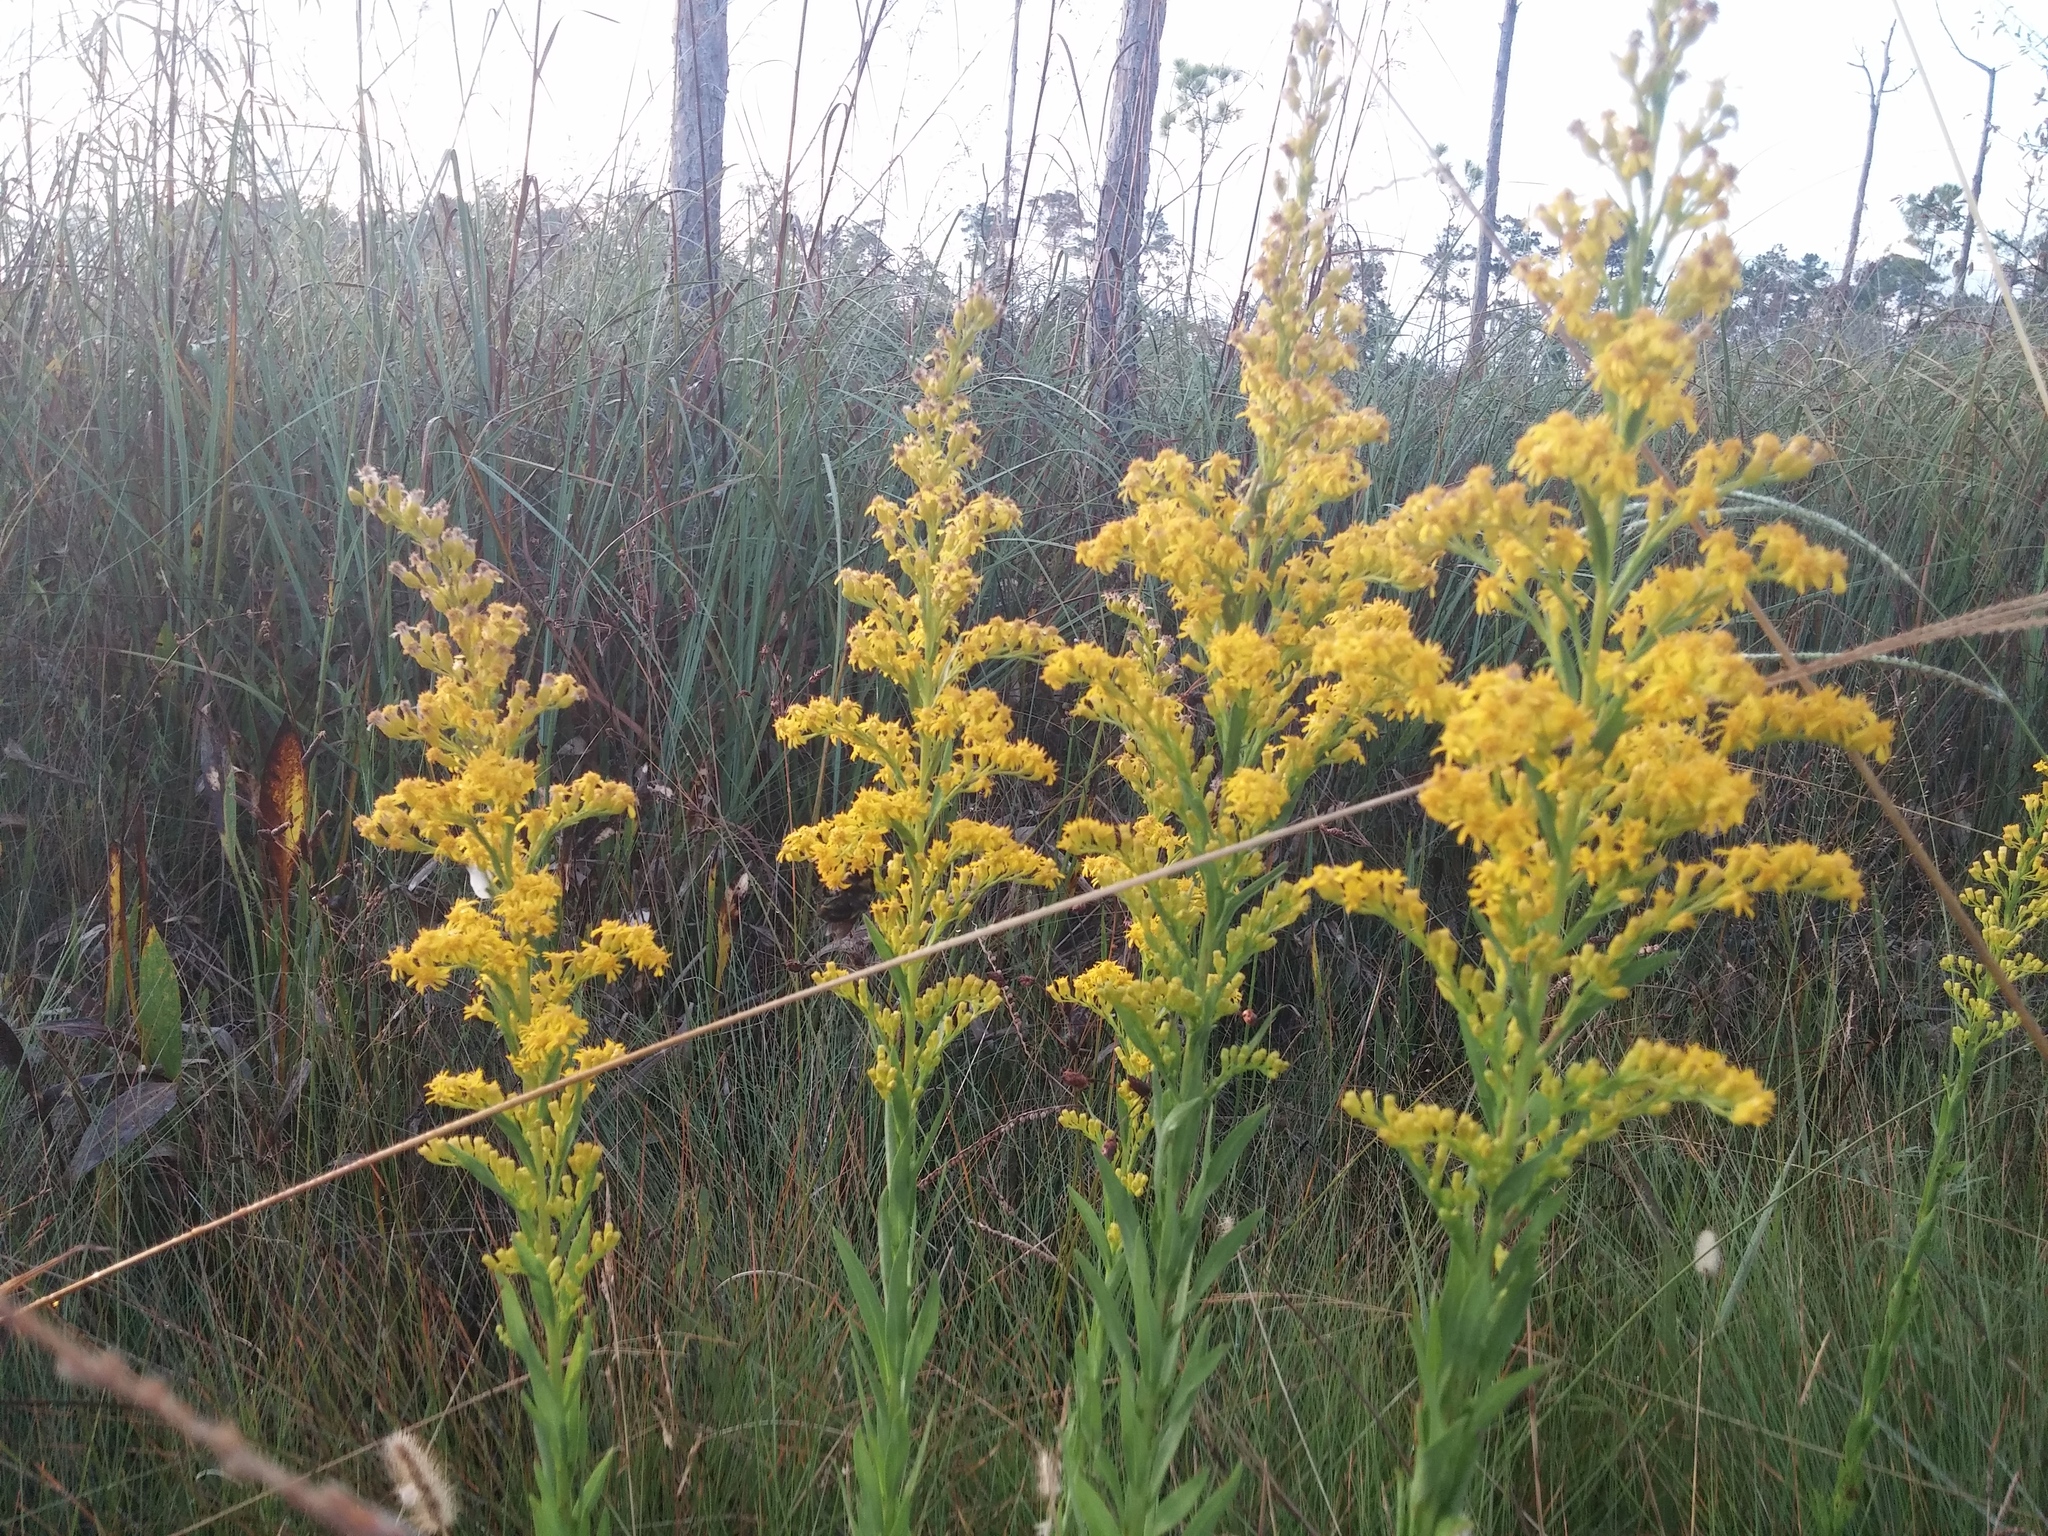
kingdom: Plantae
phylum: Tracheophyta
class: Magnoliopsida
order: Asterales
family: Asteraceae
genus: Solidago
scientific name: Solidago mexicana
